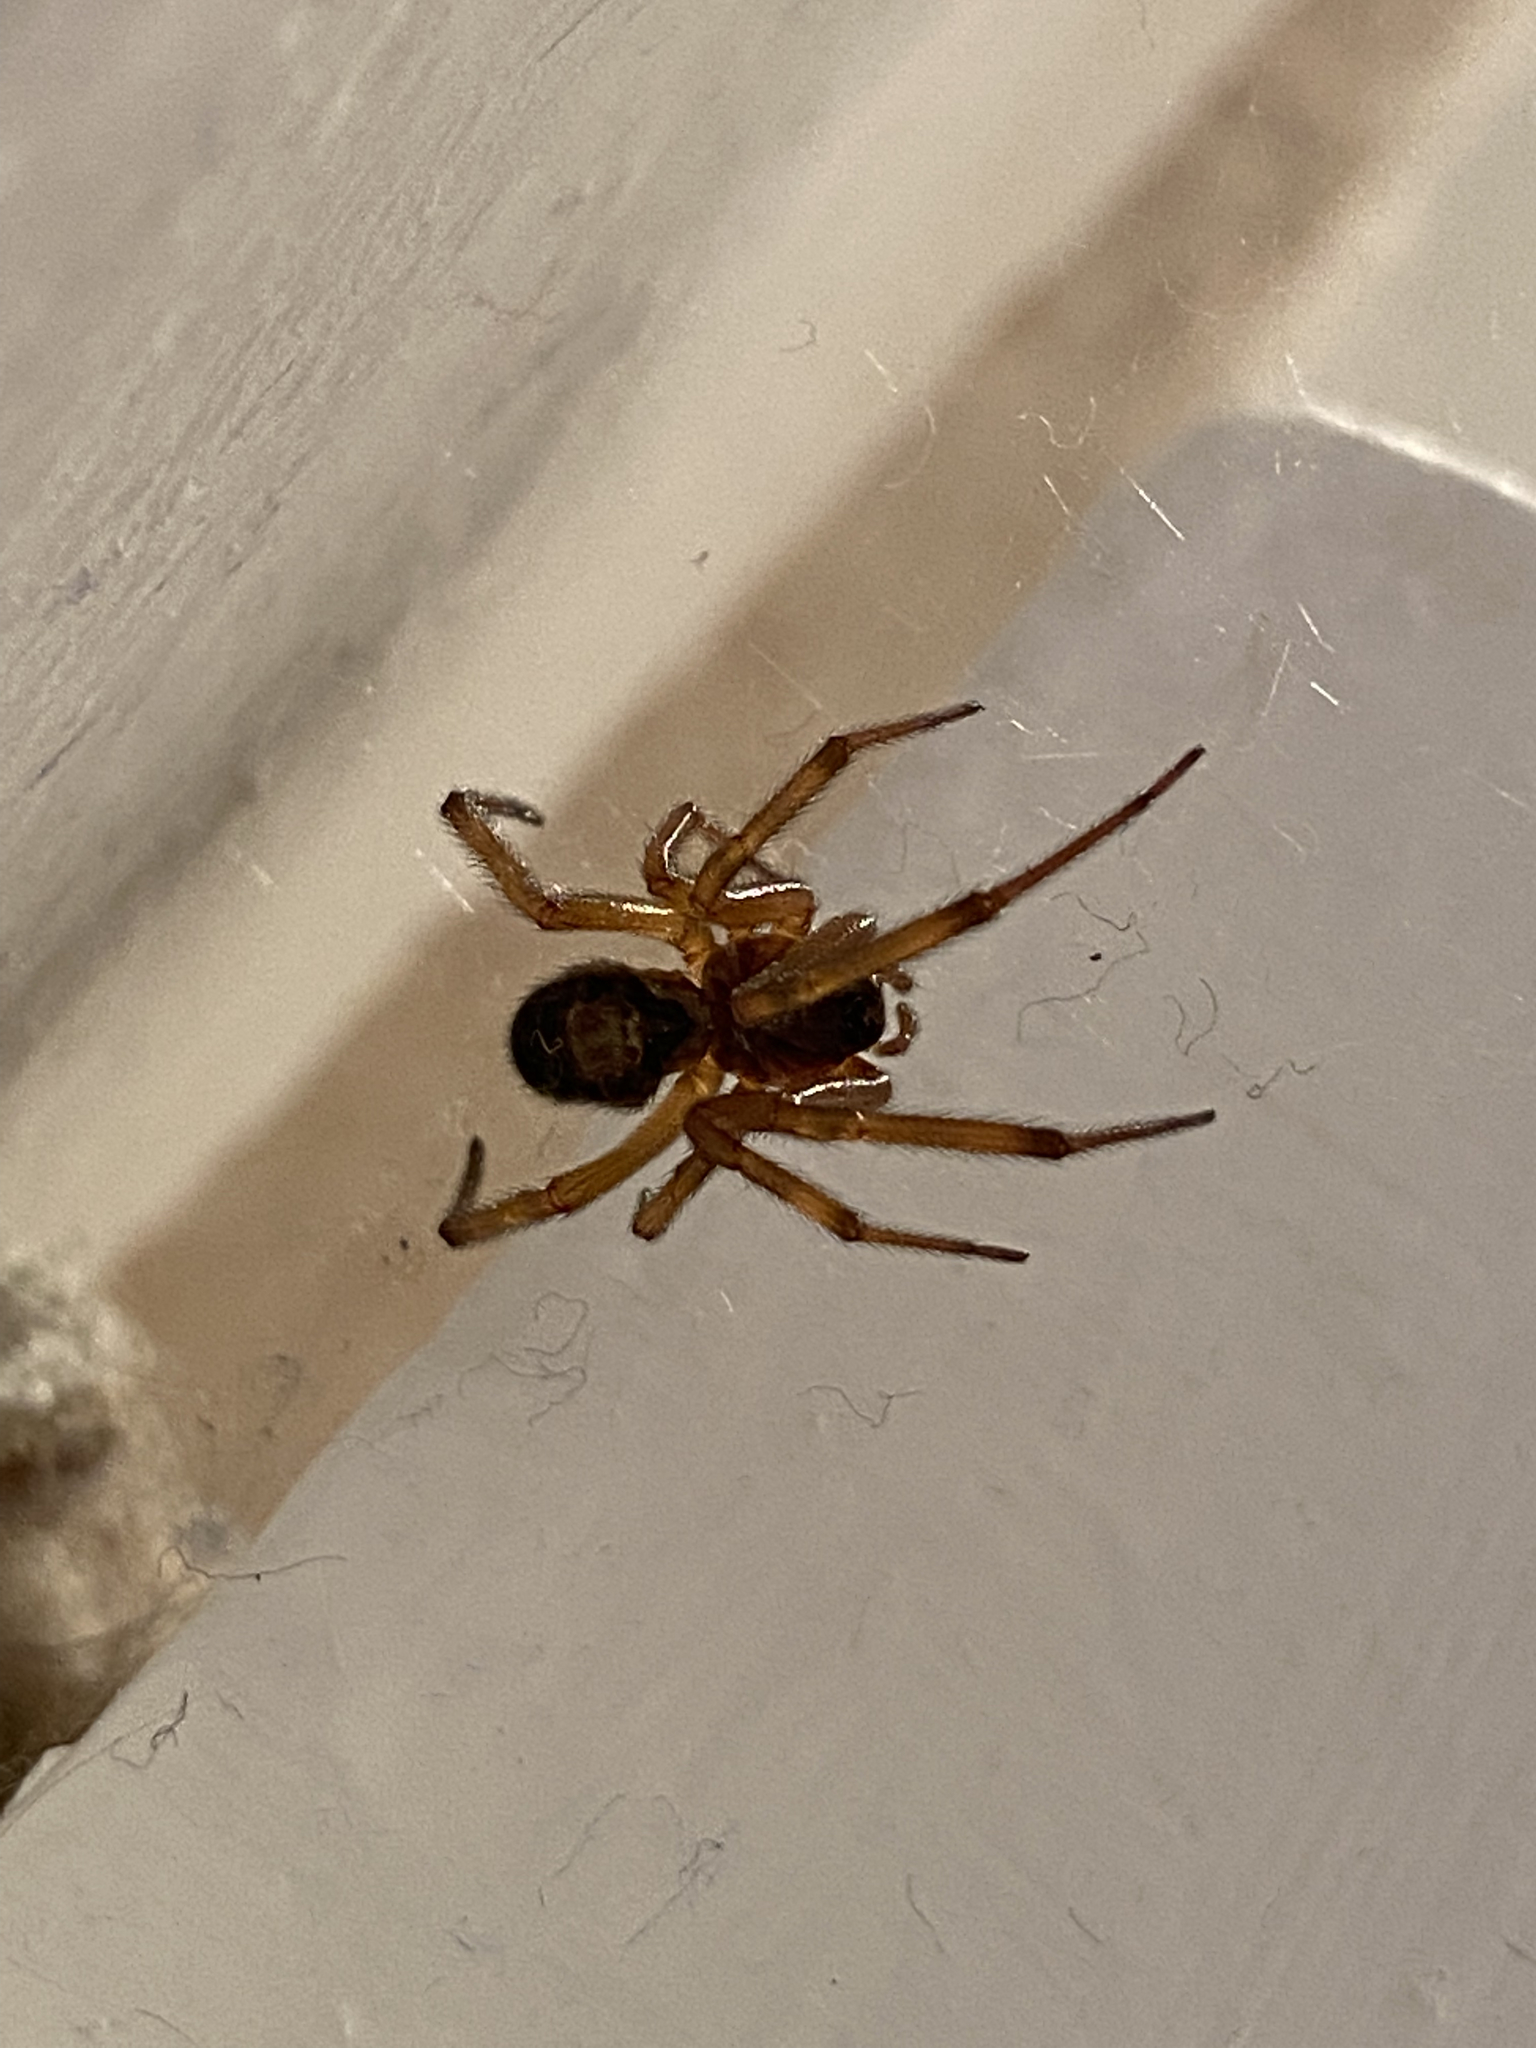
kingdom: Animalia
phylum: Arthropoda
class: Arachnida
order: Araneae
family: Theridiidae
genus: Steatoda
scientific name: Steatoda nobilis
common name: Cobweb weaver
